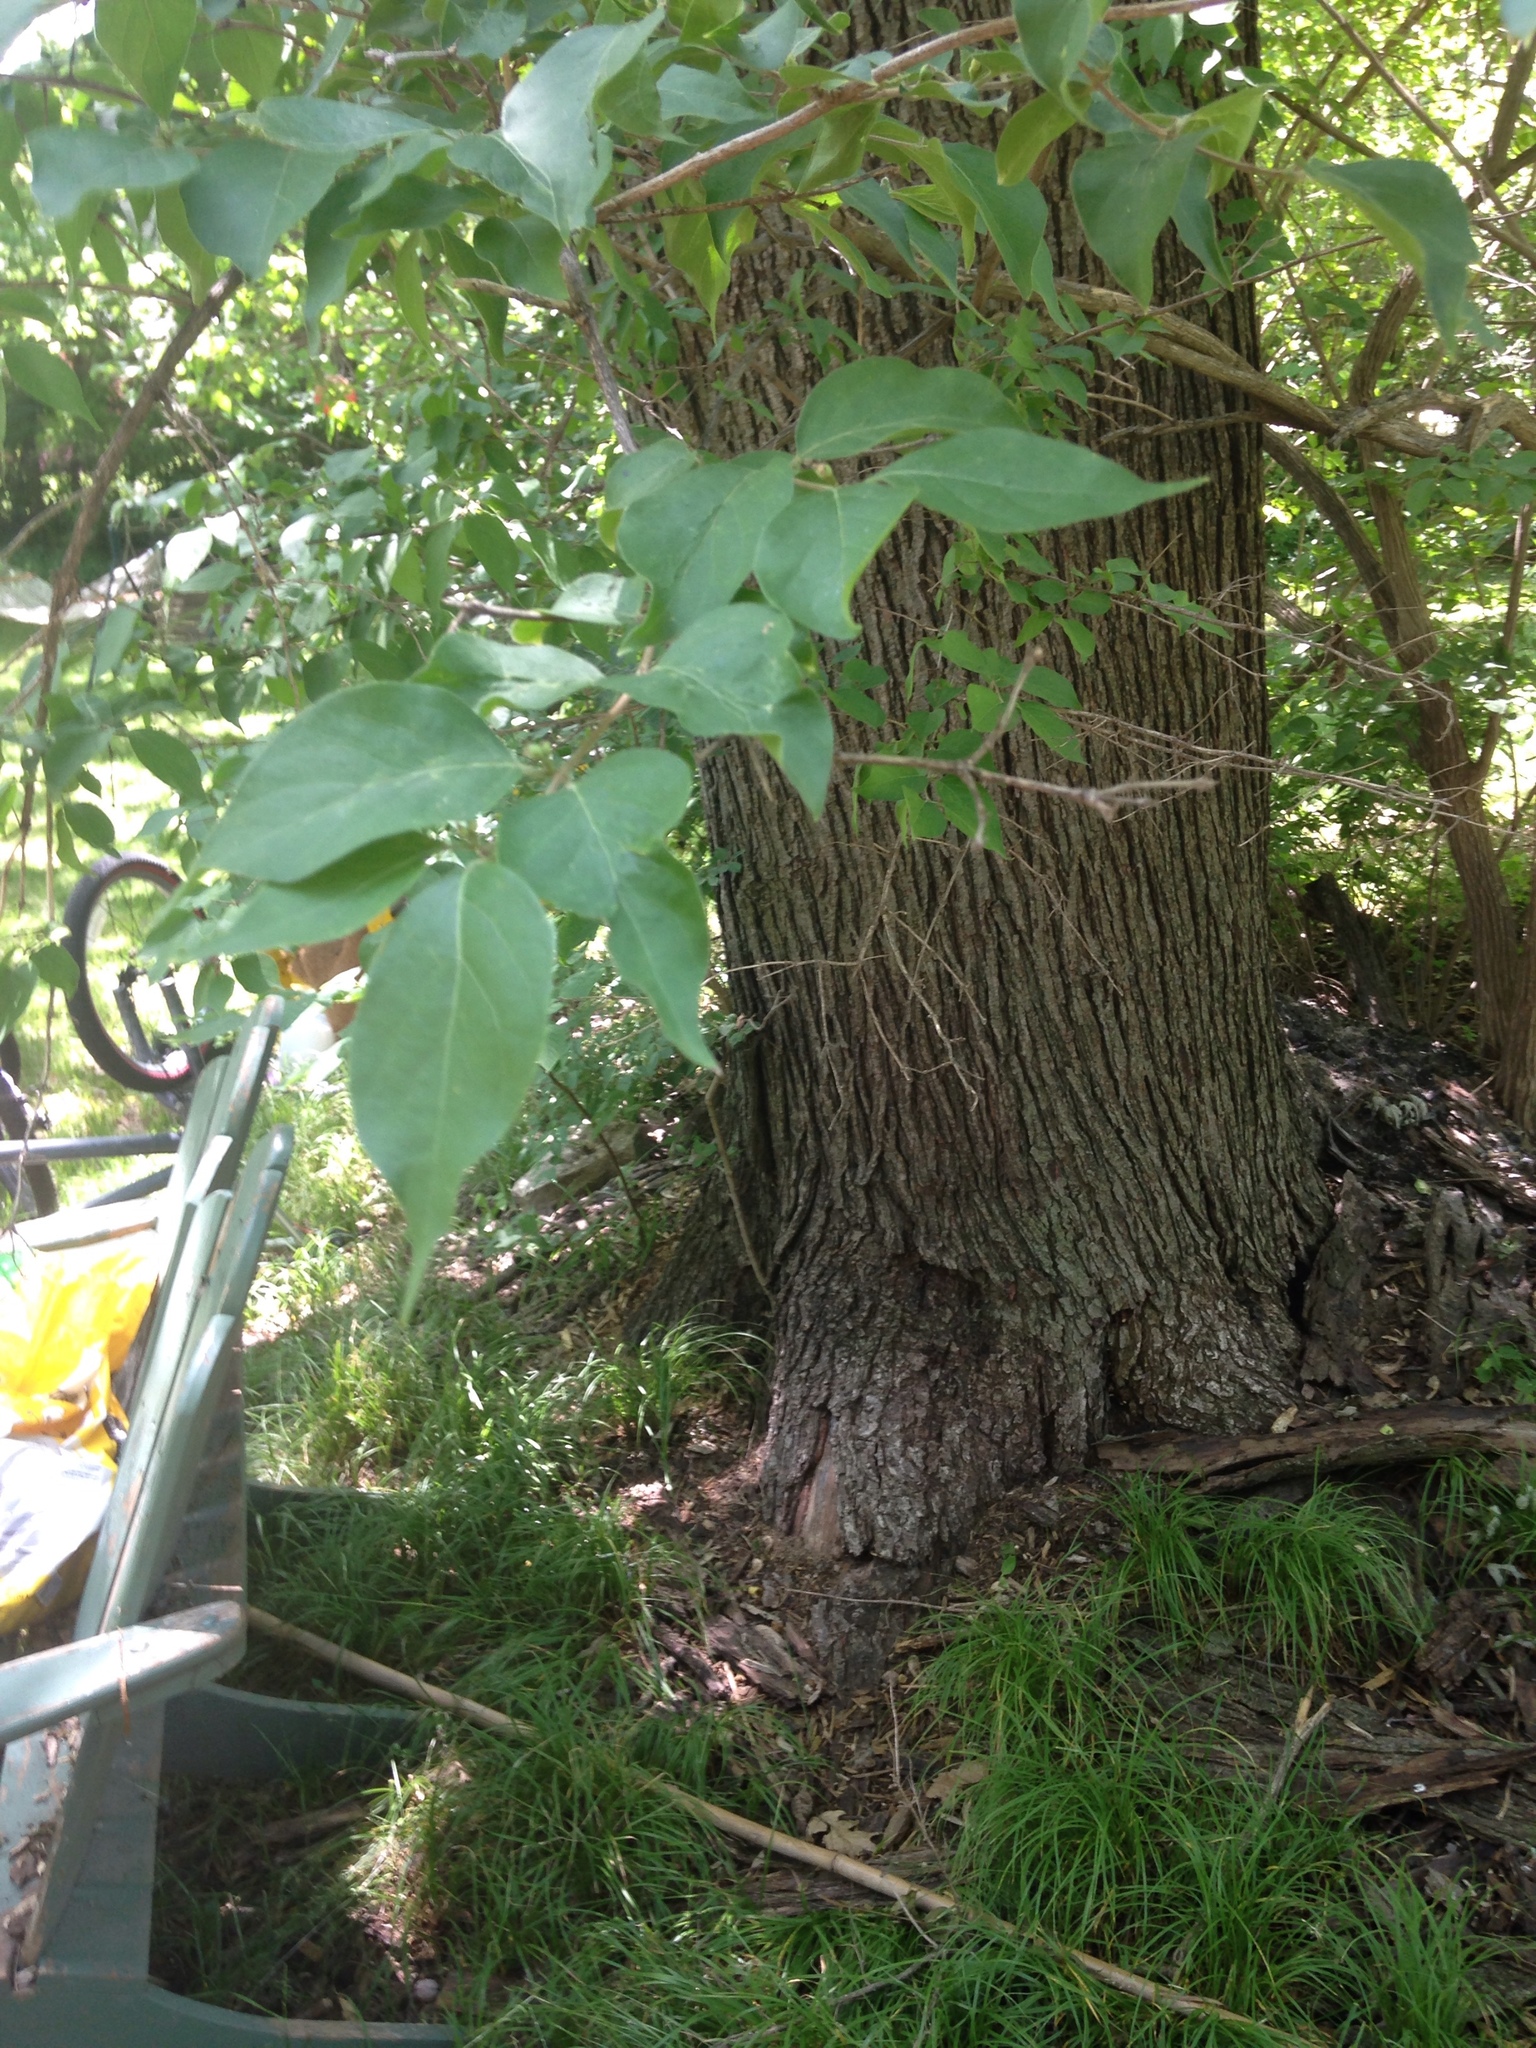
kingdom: Plantae
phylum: Tracheophyta
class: Magnoliopsida
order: Dipsacales
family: Caprifoliaceae
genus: Lonicera
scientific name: Lonicera maackii
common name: Amur honeysuckle
